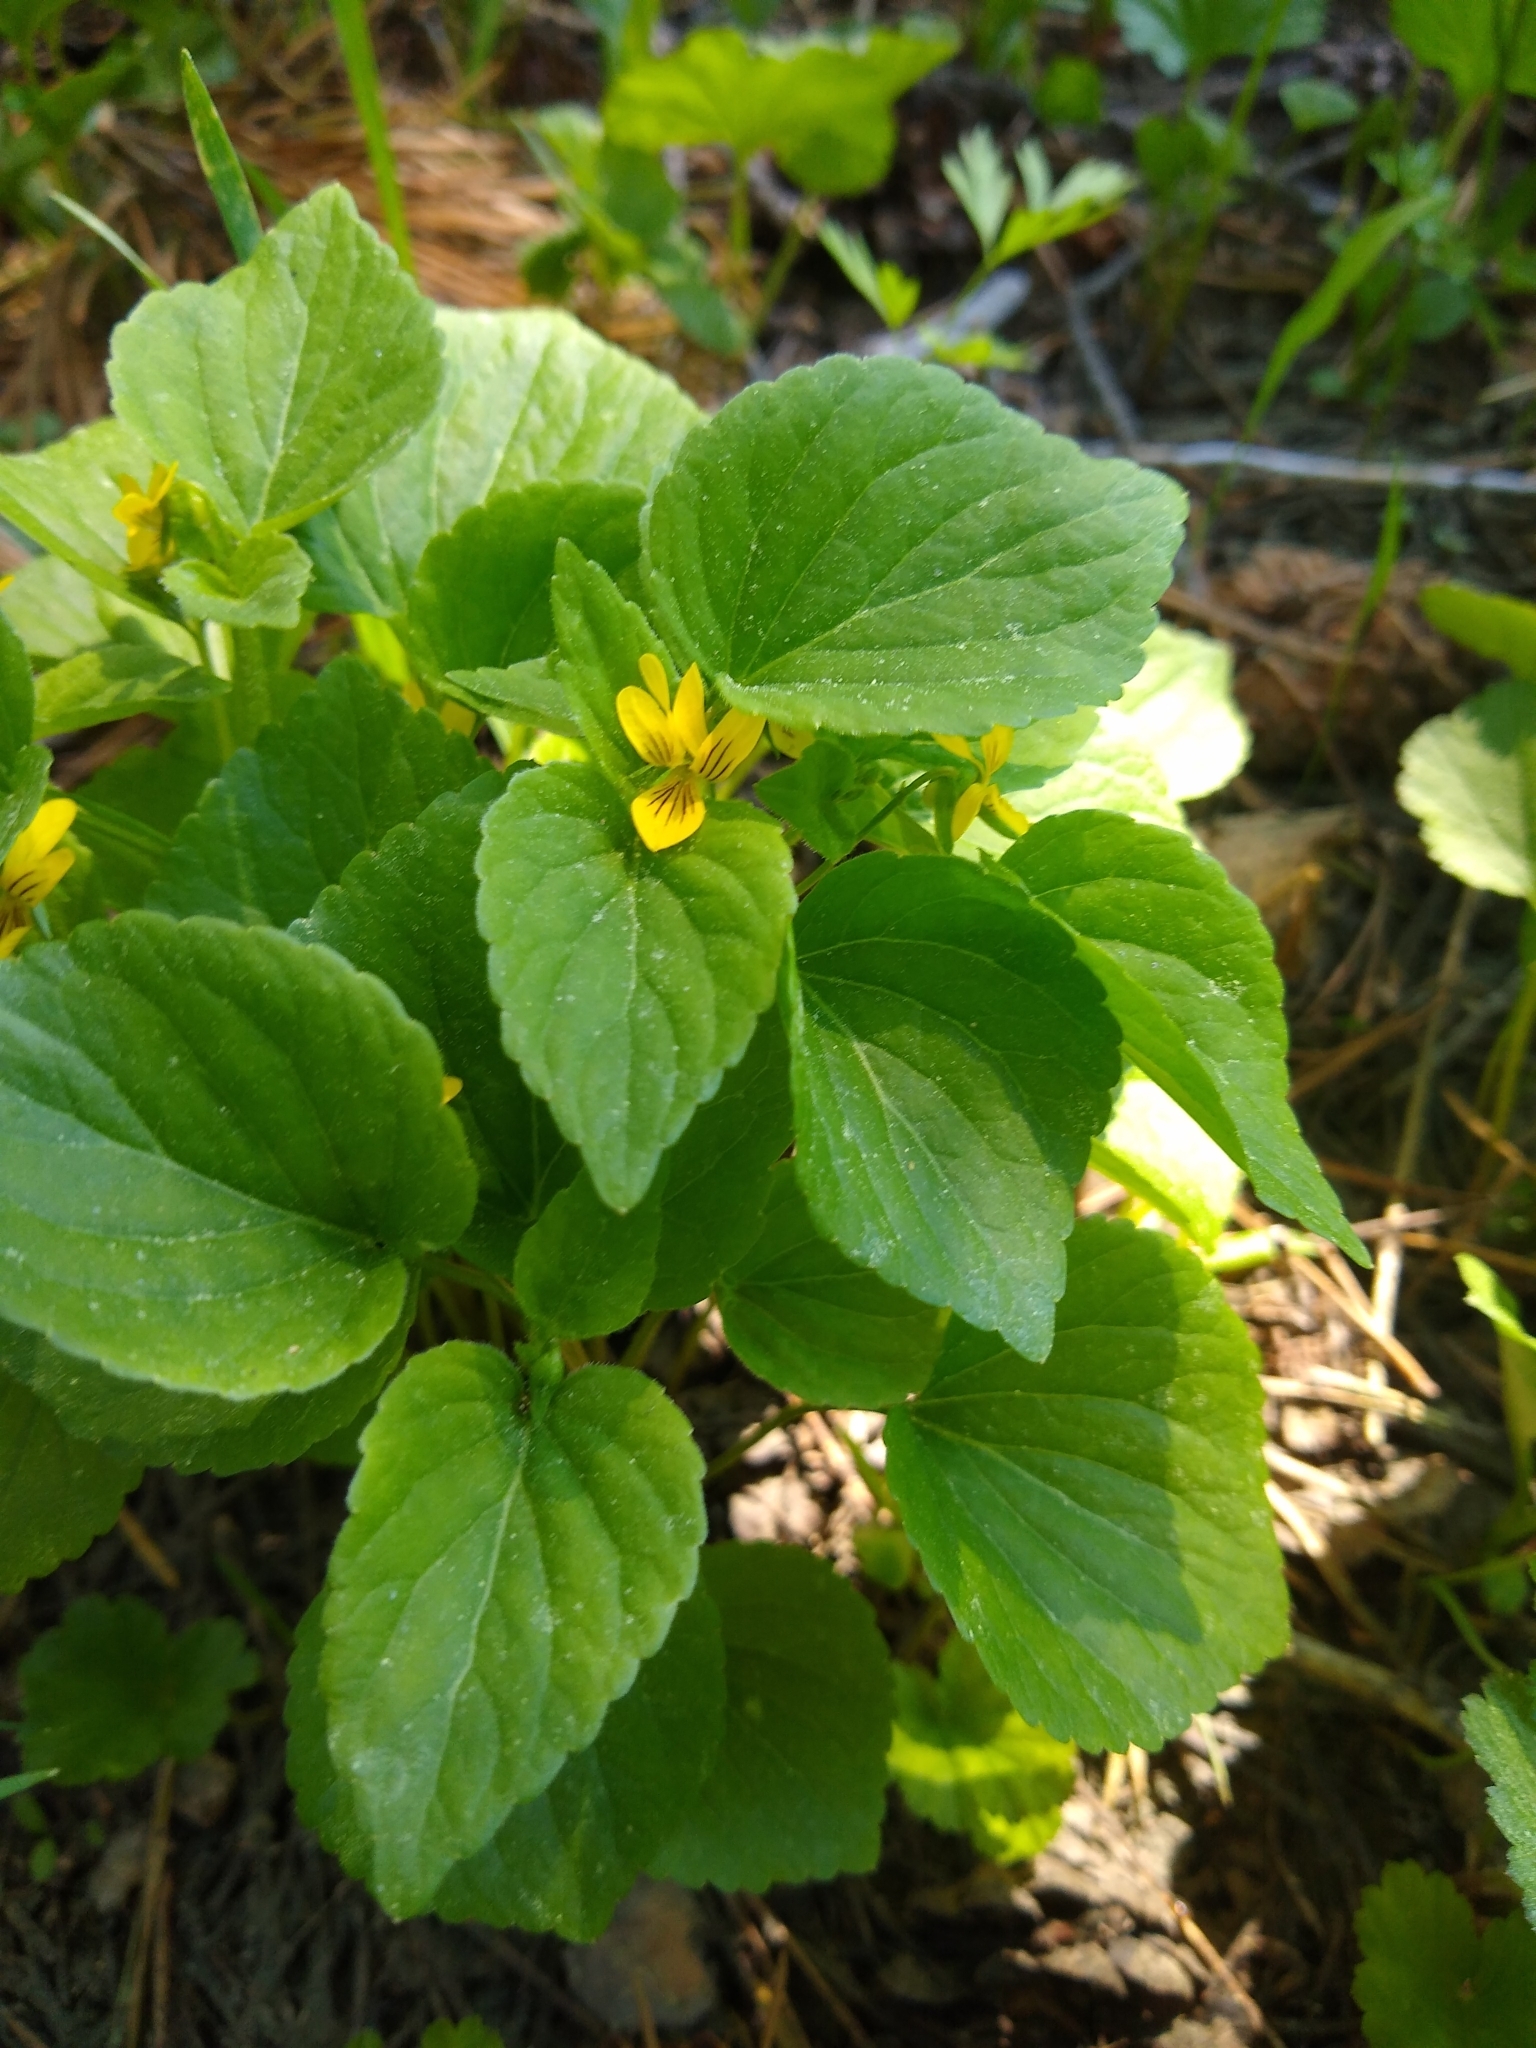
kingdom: Plantae
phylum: Tracheophyta
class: Magnoliopsida
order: Malpighiales
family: Violaceae
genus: Viola
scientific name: Viola glabella
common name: Stream violet
